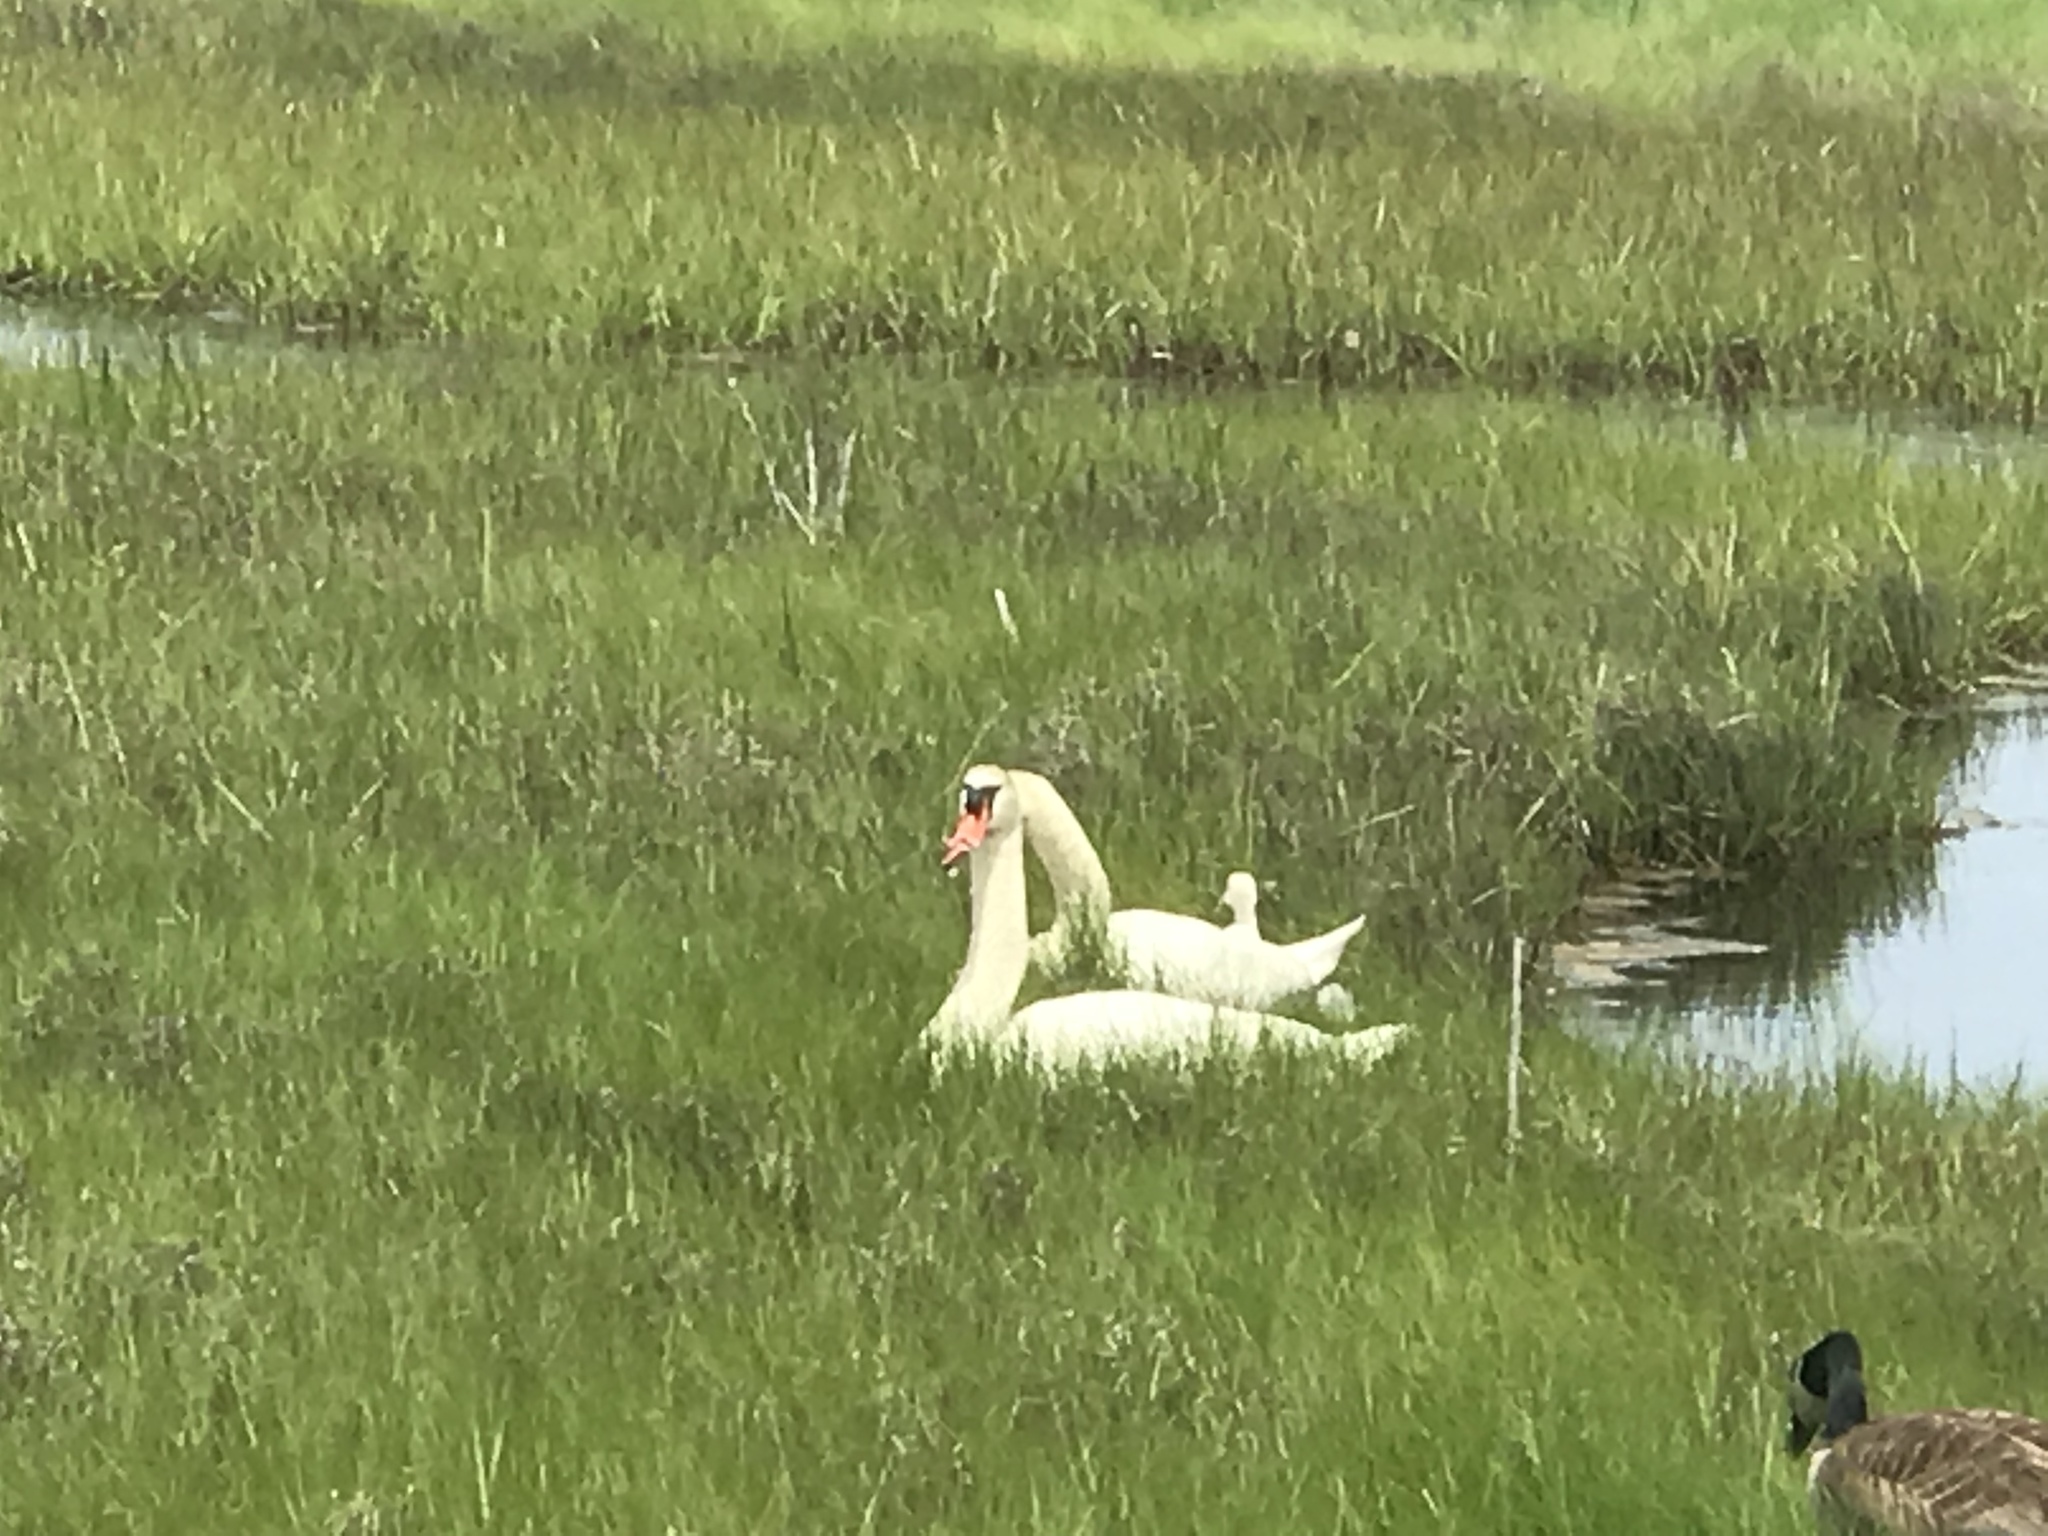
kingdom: Animalia
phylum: Chordata
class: Aves
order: Anseriformes
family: Anatidae
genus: Cygnus
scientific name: Cygnus olor
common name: Mute swan
